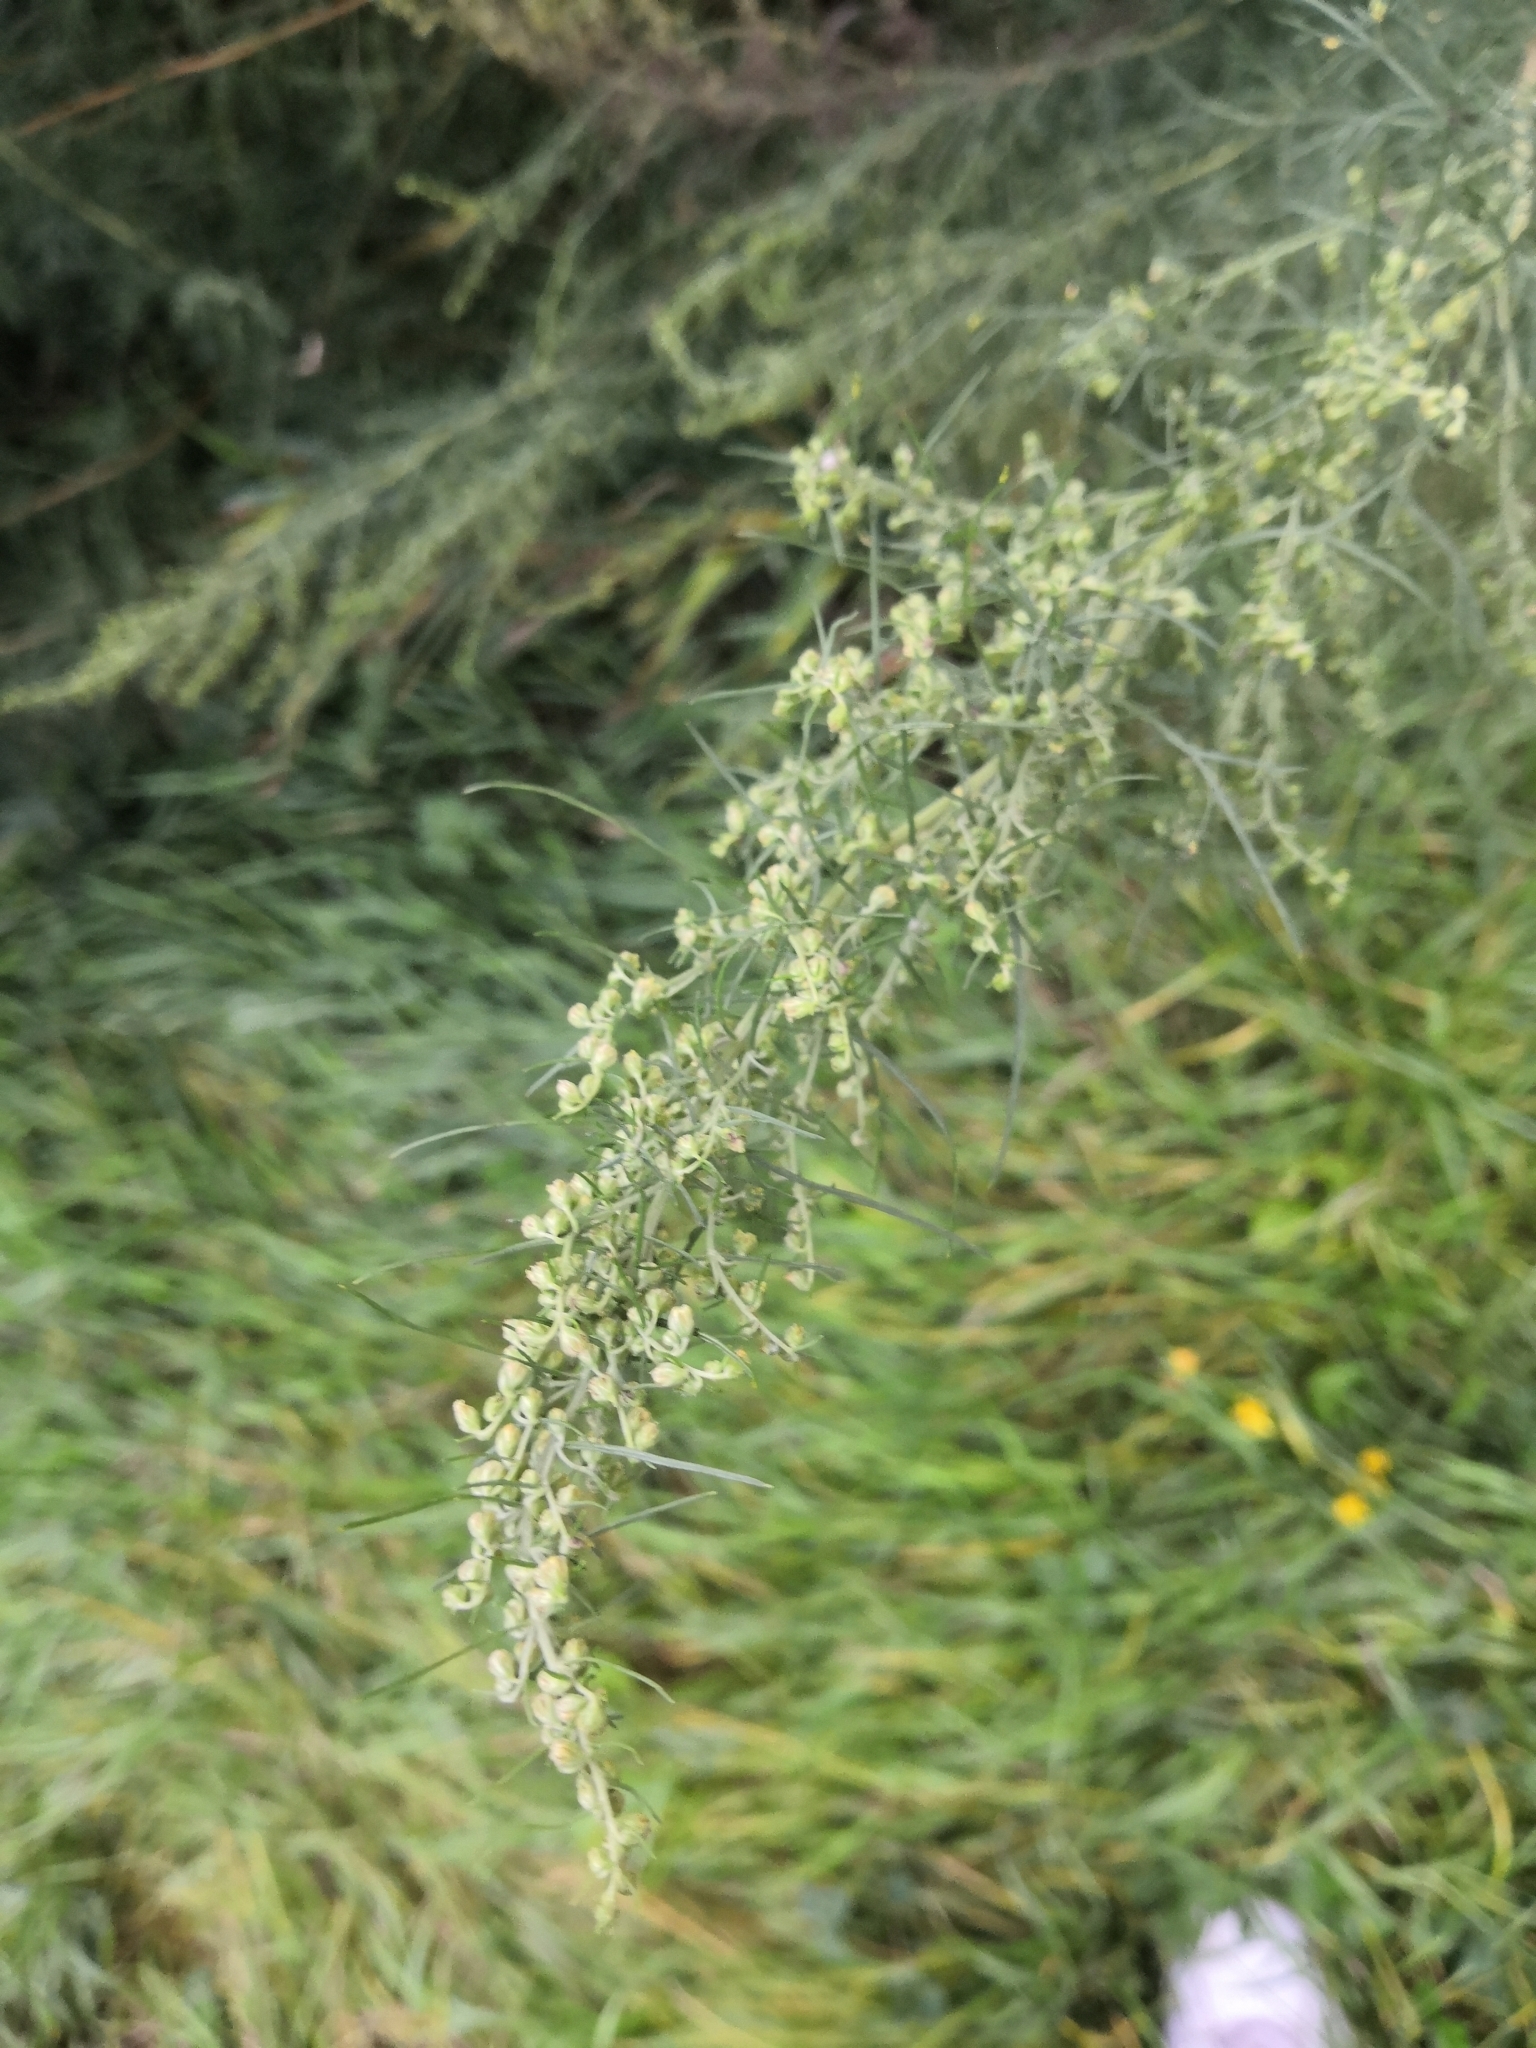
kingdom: Plantae
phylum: Tracheophyta
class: Magnoliopsida
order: Asterales
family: Asteraceae
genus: Artemisia
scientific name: Artemisia abrotanum
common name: Southernwood
